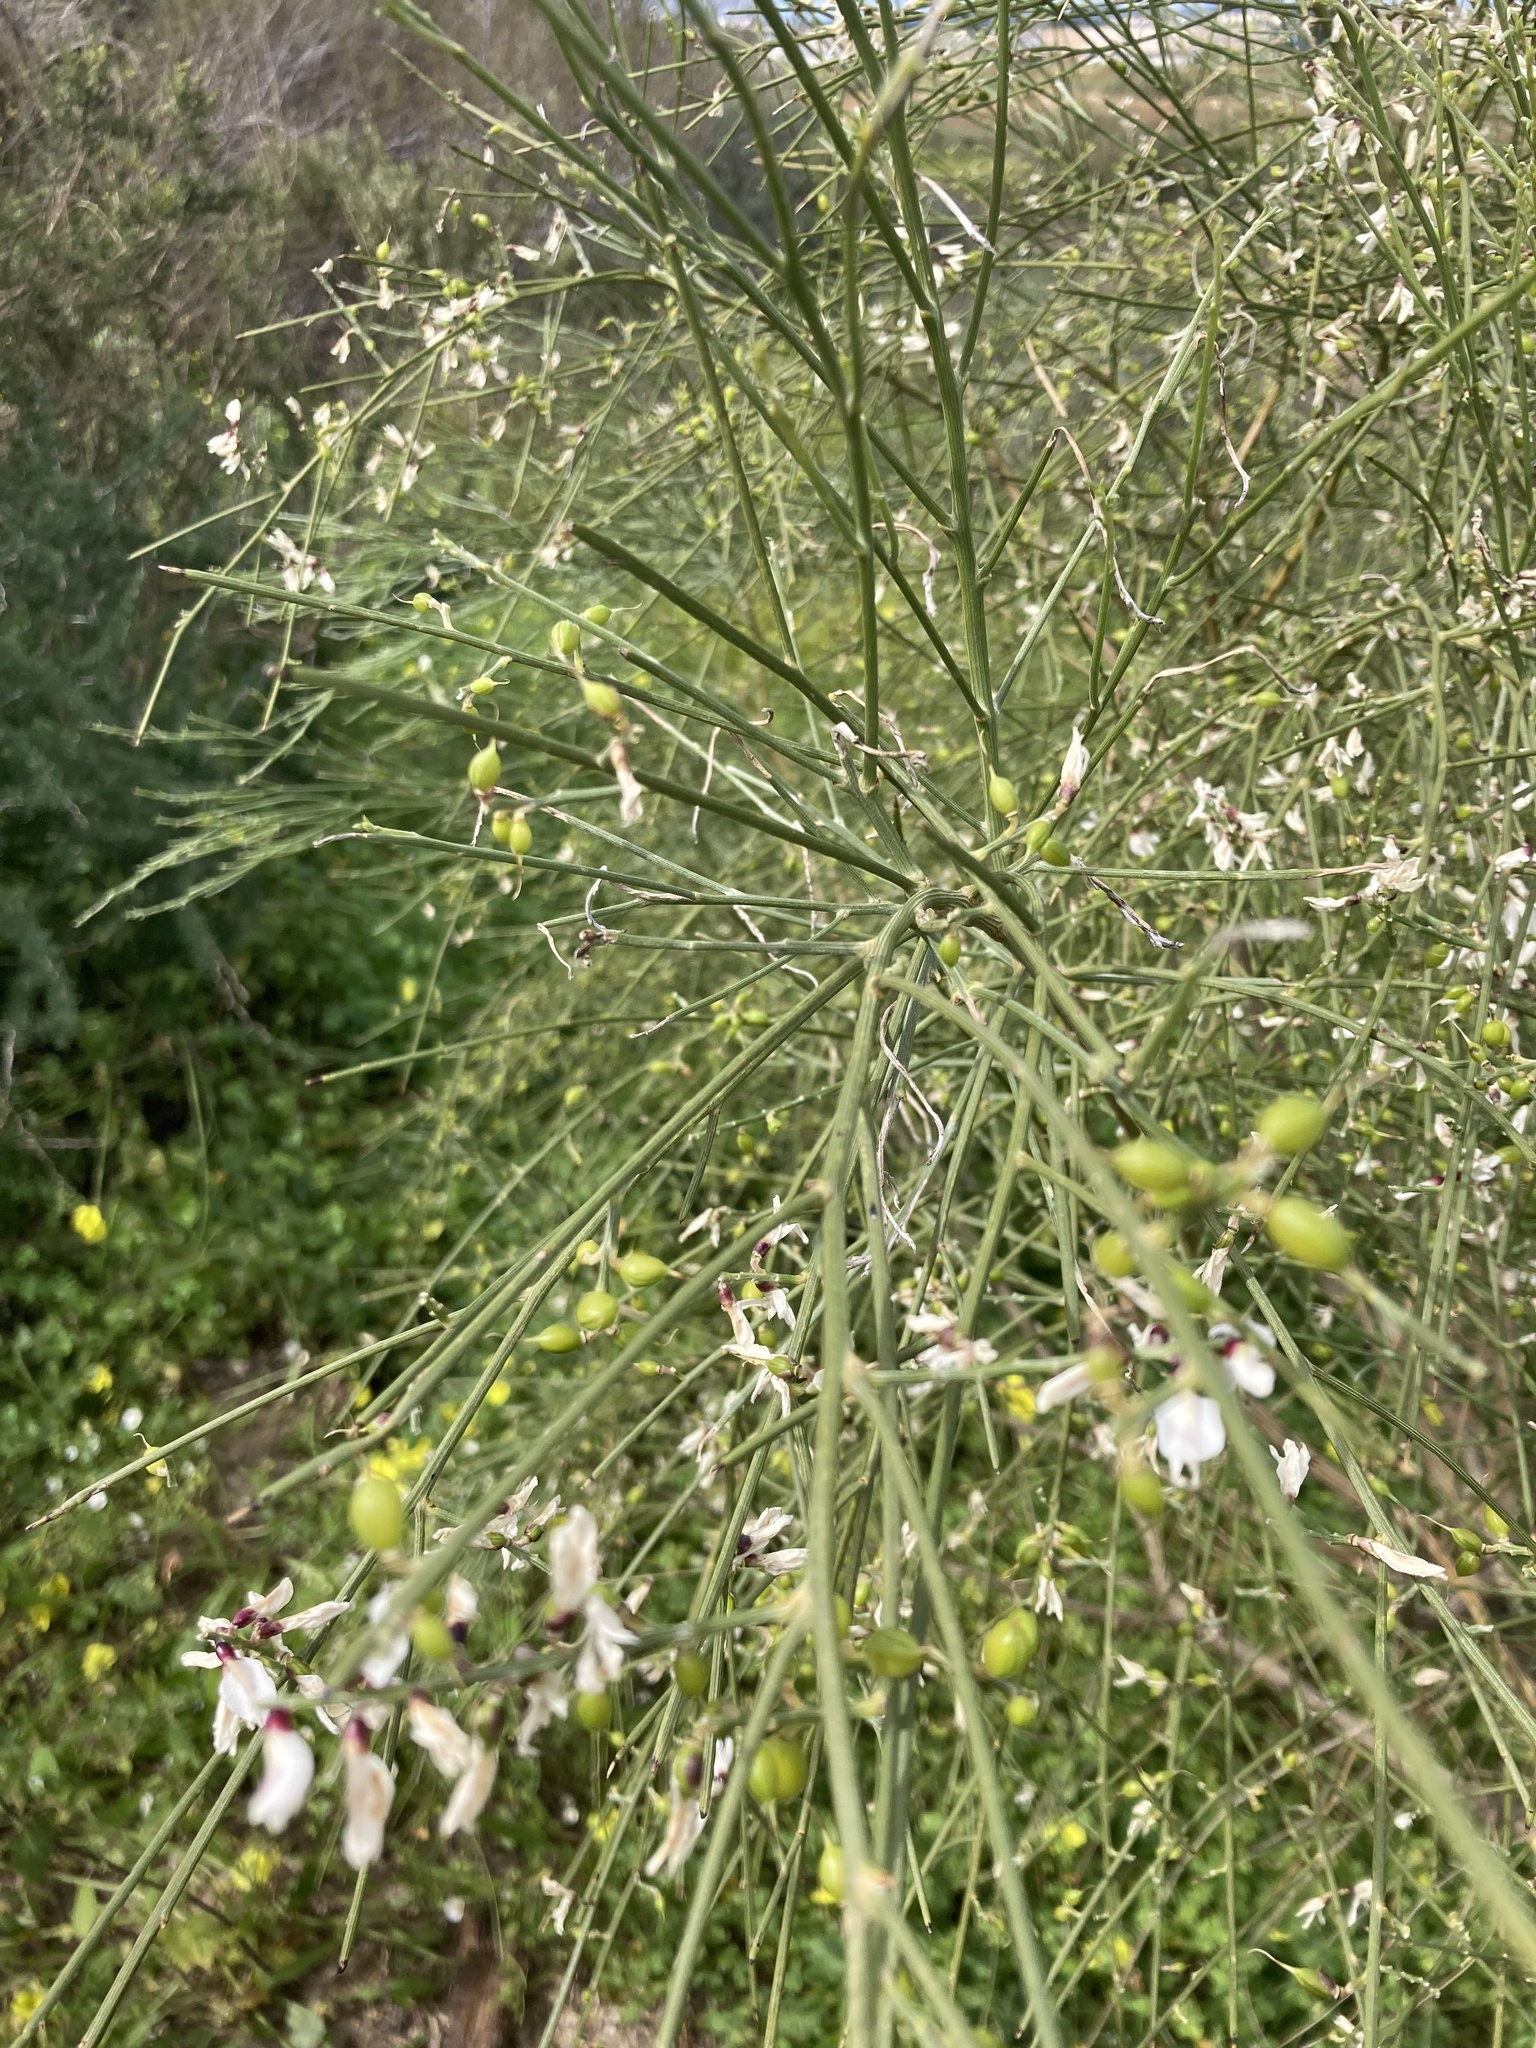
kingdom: Plantae
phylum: Tracheophyta
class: Magnoliopsida
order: Fabales
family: Fabaceae
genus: Retama
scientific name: Retama monosperma
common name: Bridal broom
